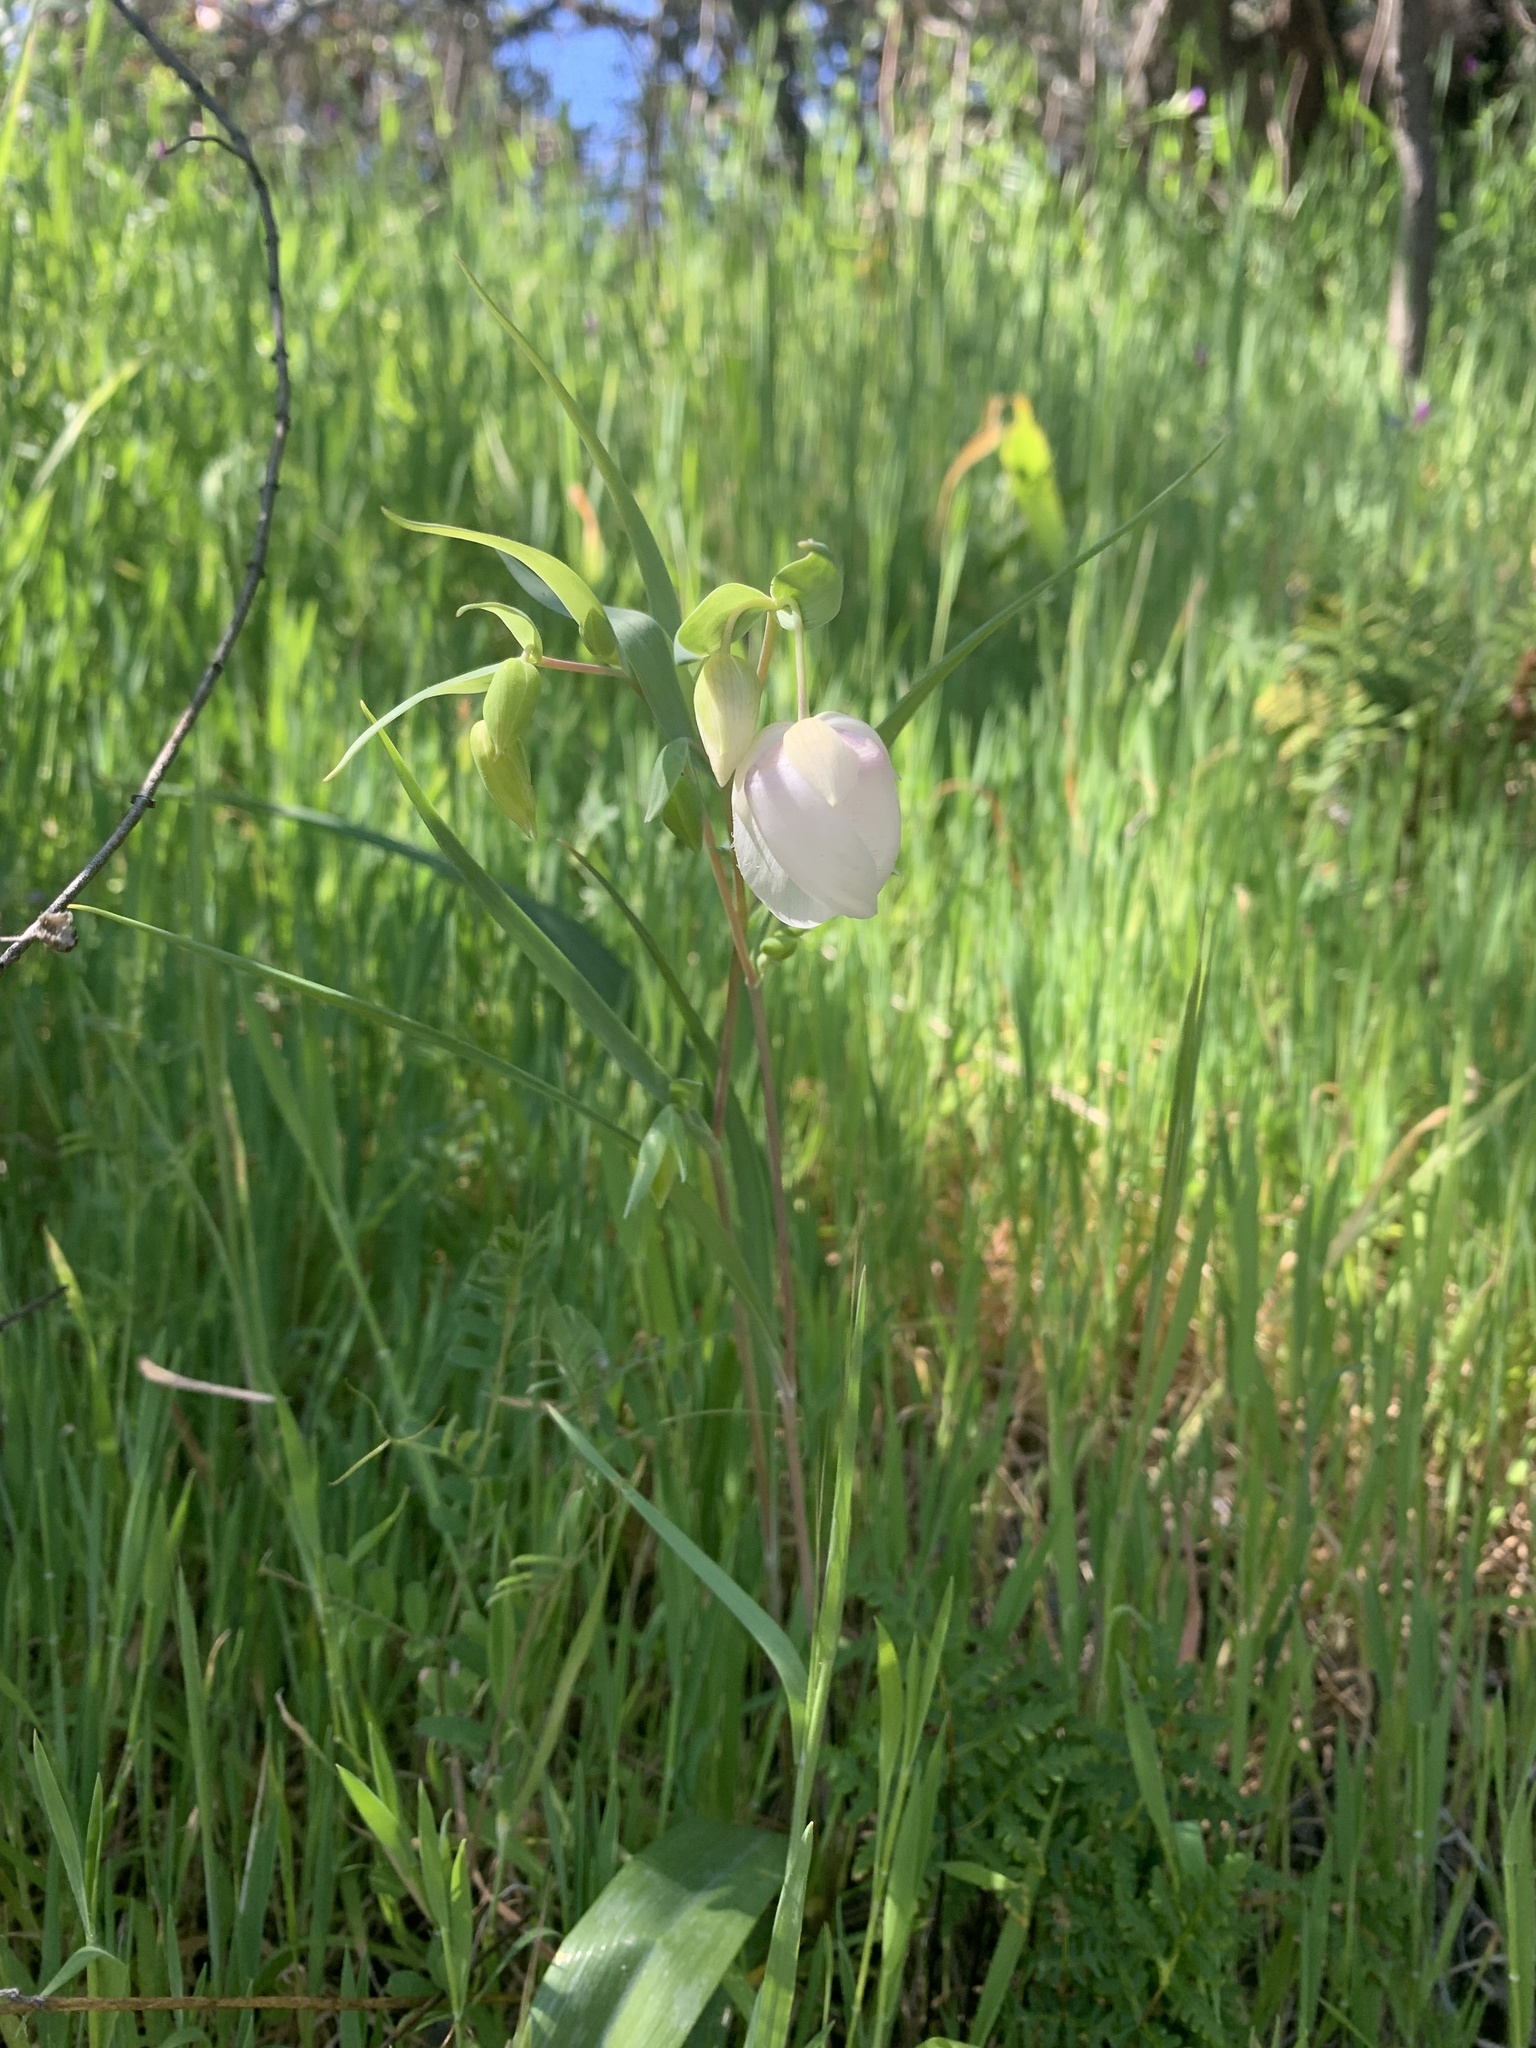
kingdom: Plantae
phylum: Tracheophyta
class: Liliopsida
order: Liliales
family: Liliaceae
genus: Calochortus
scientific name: Calochortus albus
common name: Fairy-lantern
